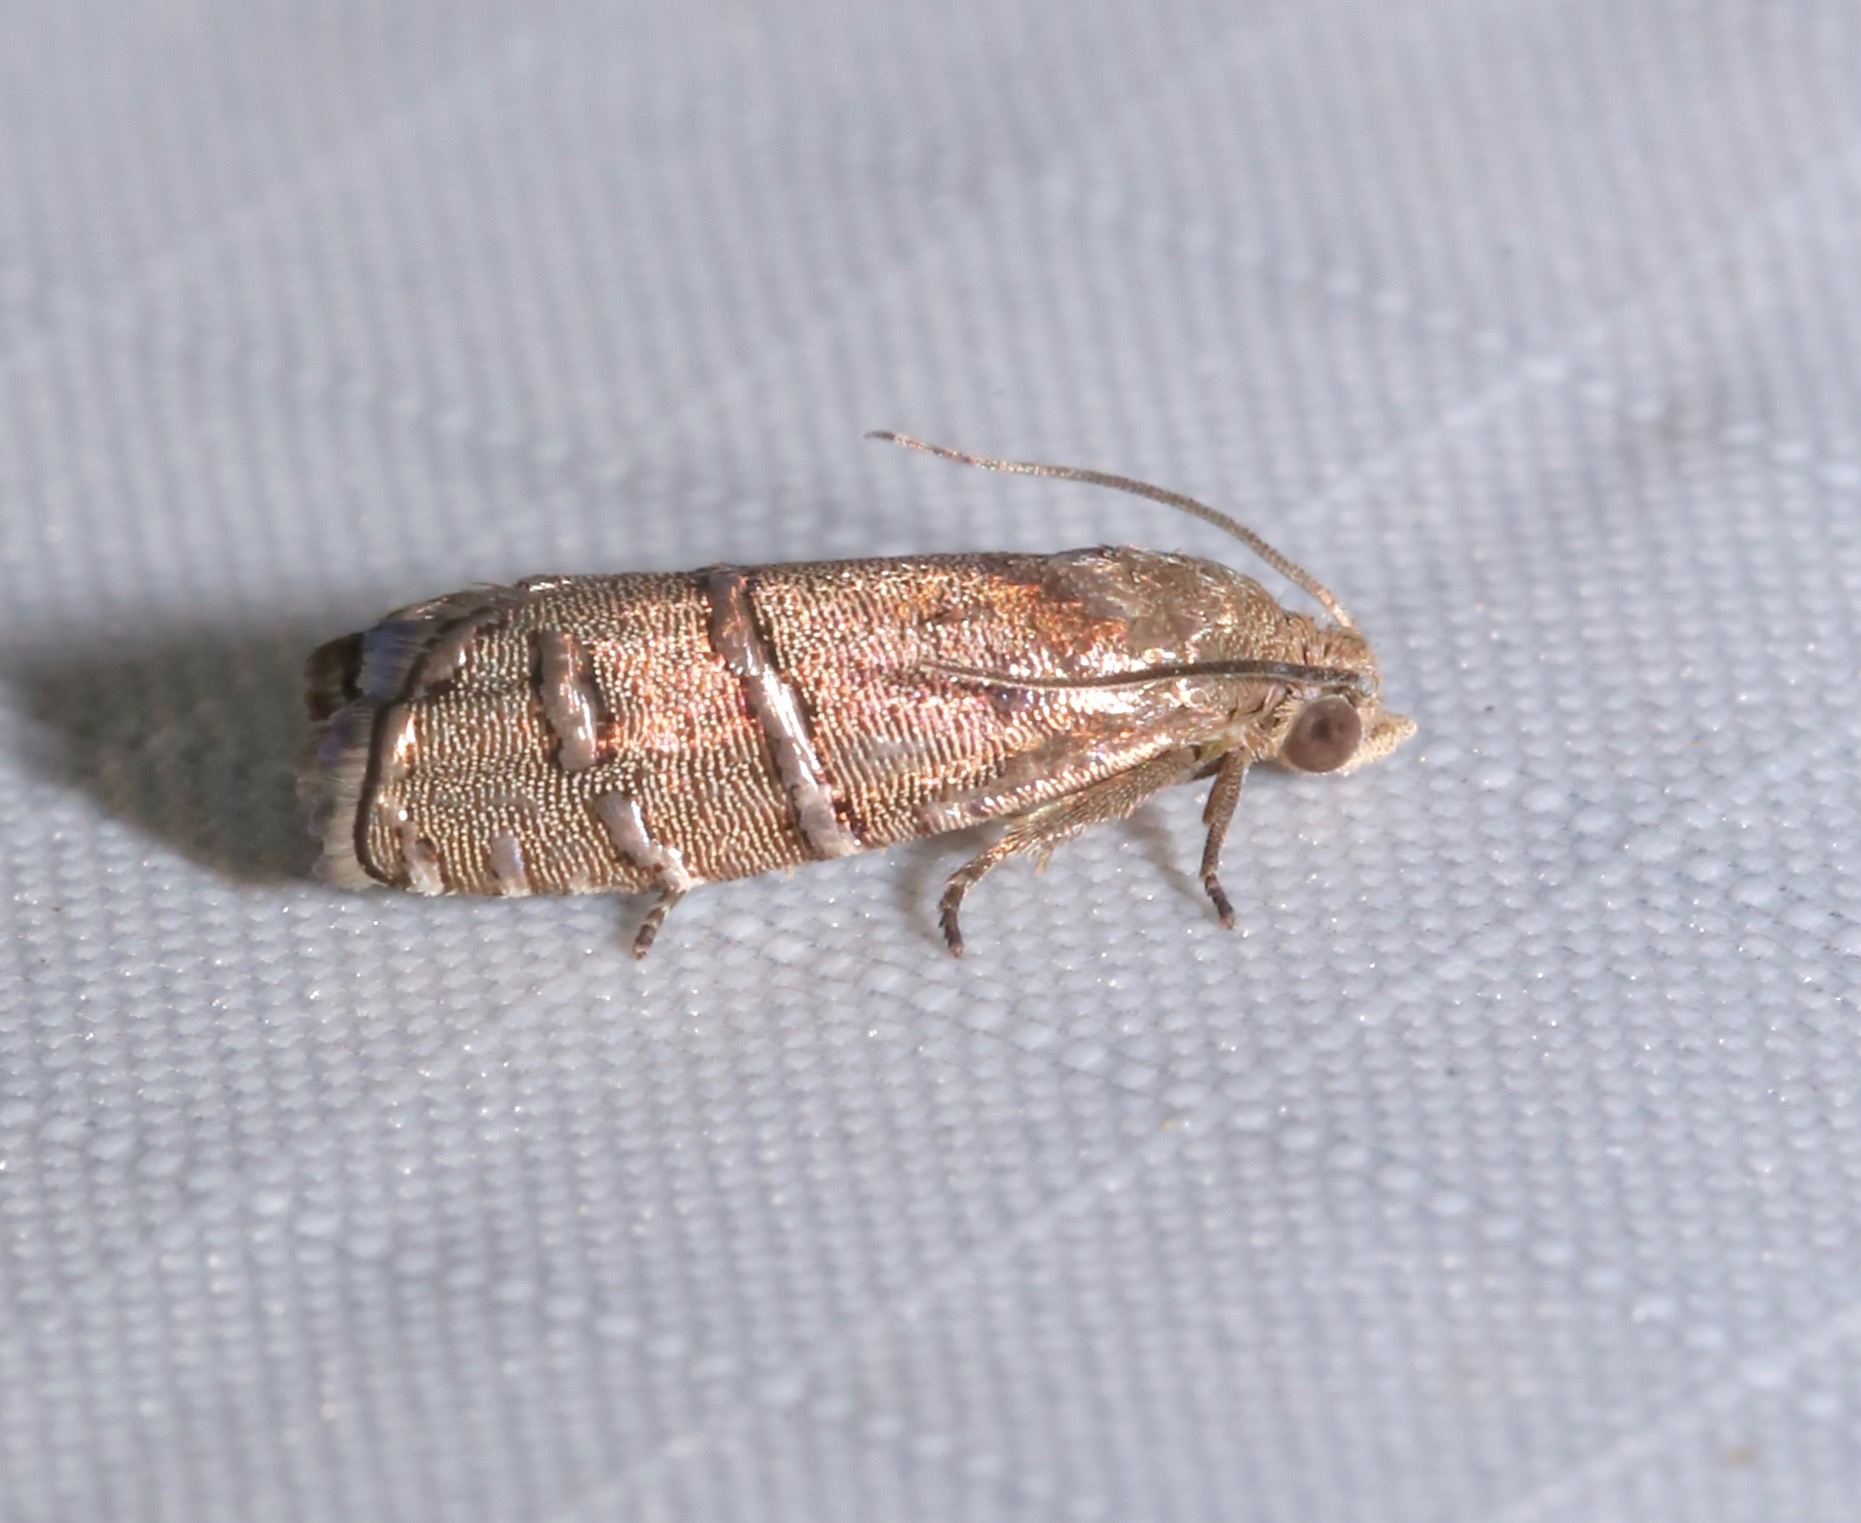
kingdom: Animalia
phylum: Arthropoda
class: Insecta
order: Lepidoptera
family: Tortricidae
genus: Cydia
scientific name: Cydia ingens
